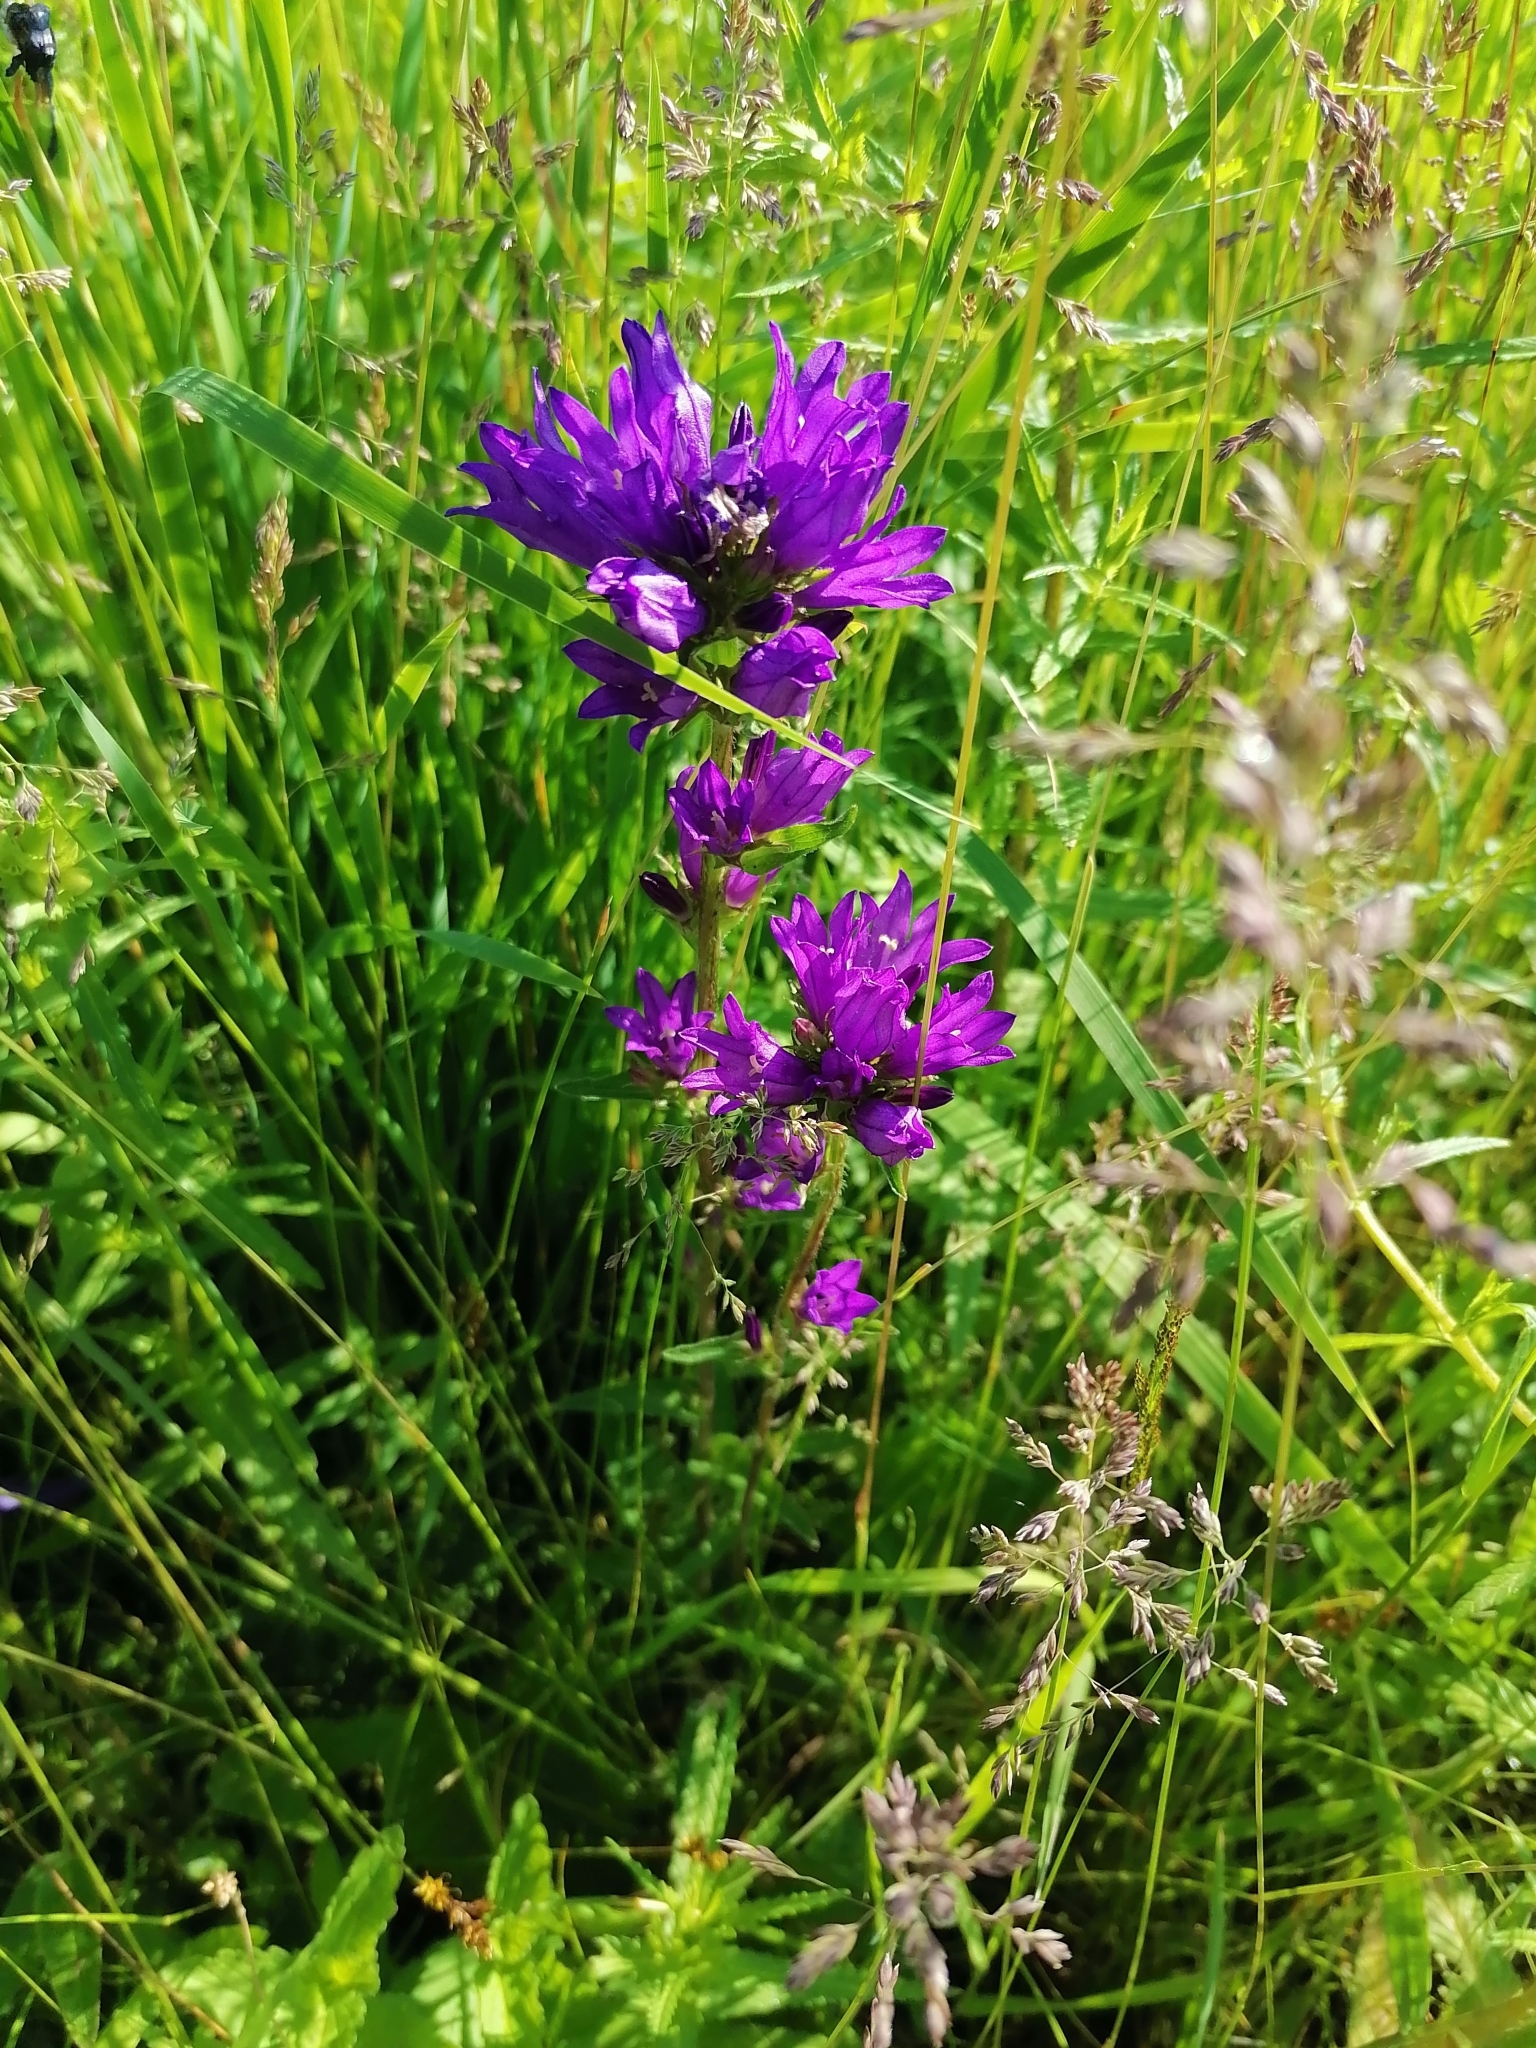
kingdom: Plantae
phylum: Tracheophyta
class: Magnoliopsida
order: Asterales
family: Campanulaceae
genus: Campanula
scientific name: Campanula glomerata
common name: Clustered bellflower
